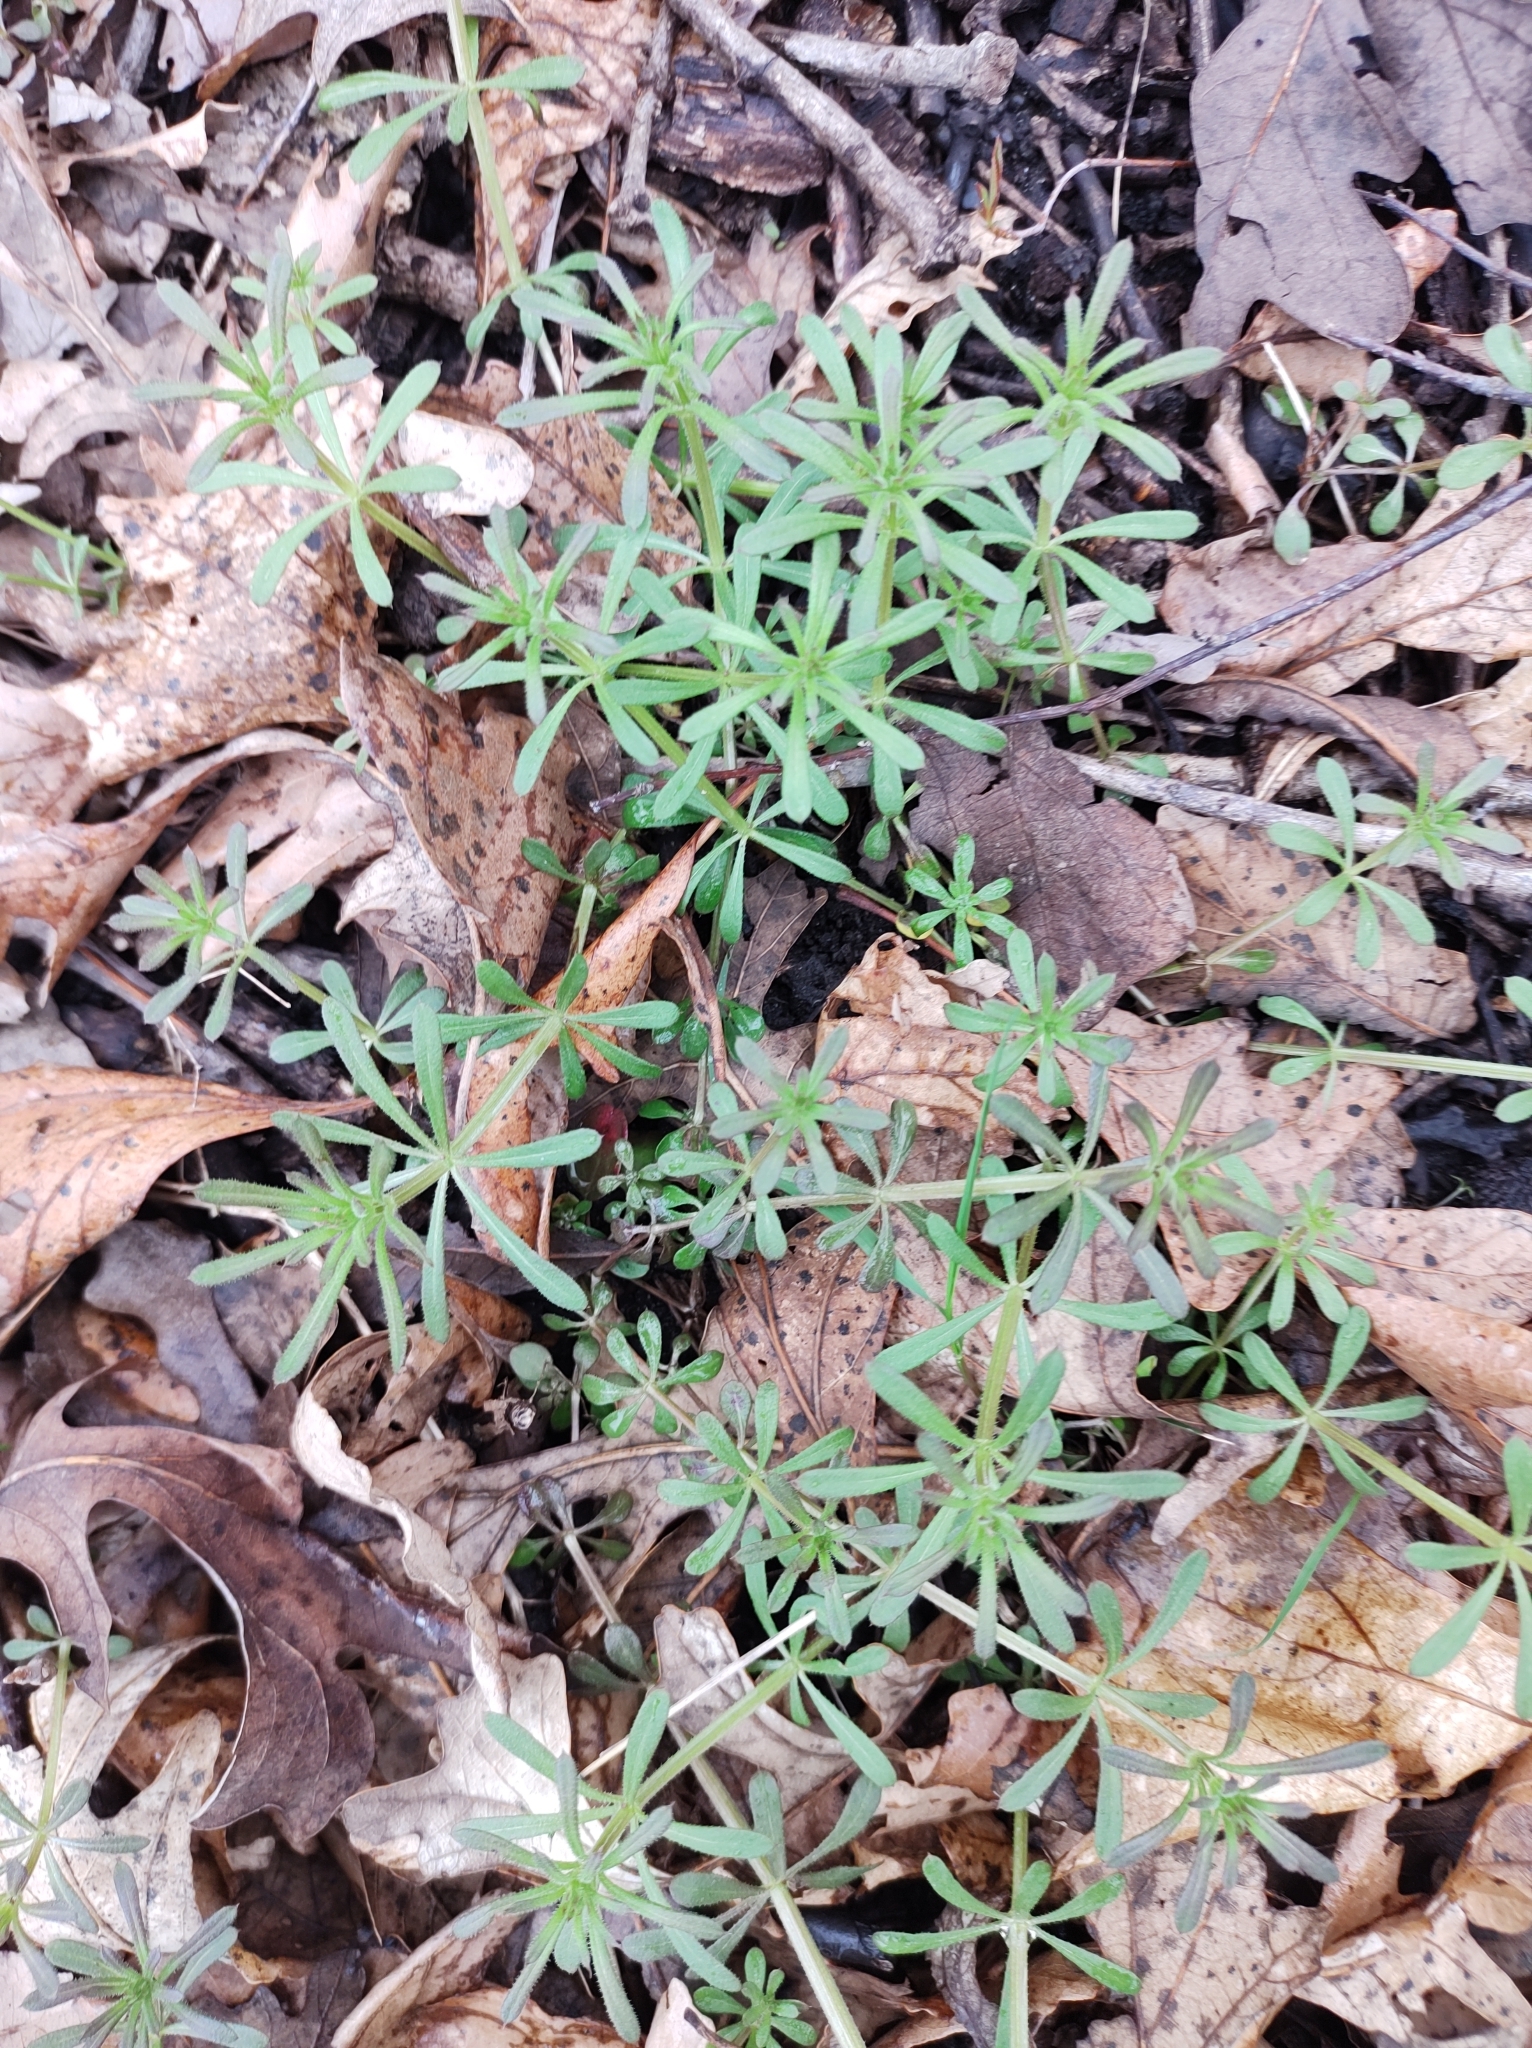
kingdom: Plantae
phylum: Tracheophyta
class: Magnoliopsida
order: Gentianales
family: Rubiaceae
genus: Galium
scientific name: Galium aparine
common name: Cleavers
